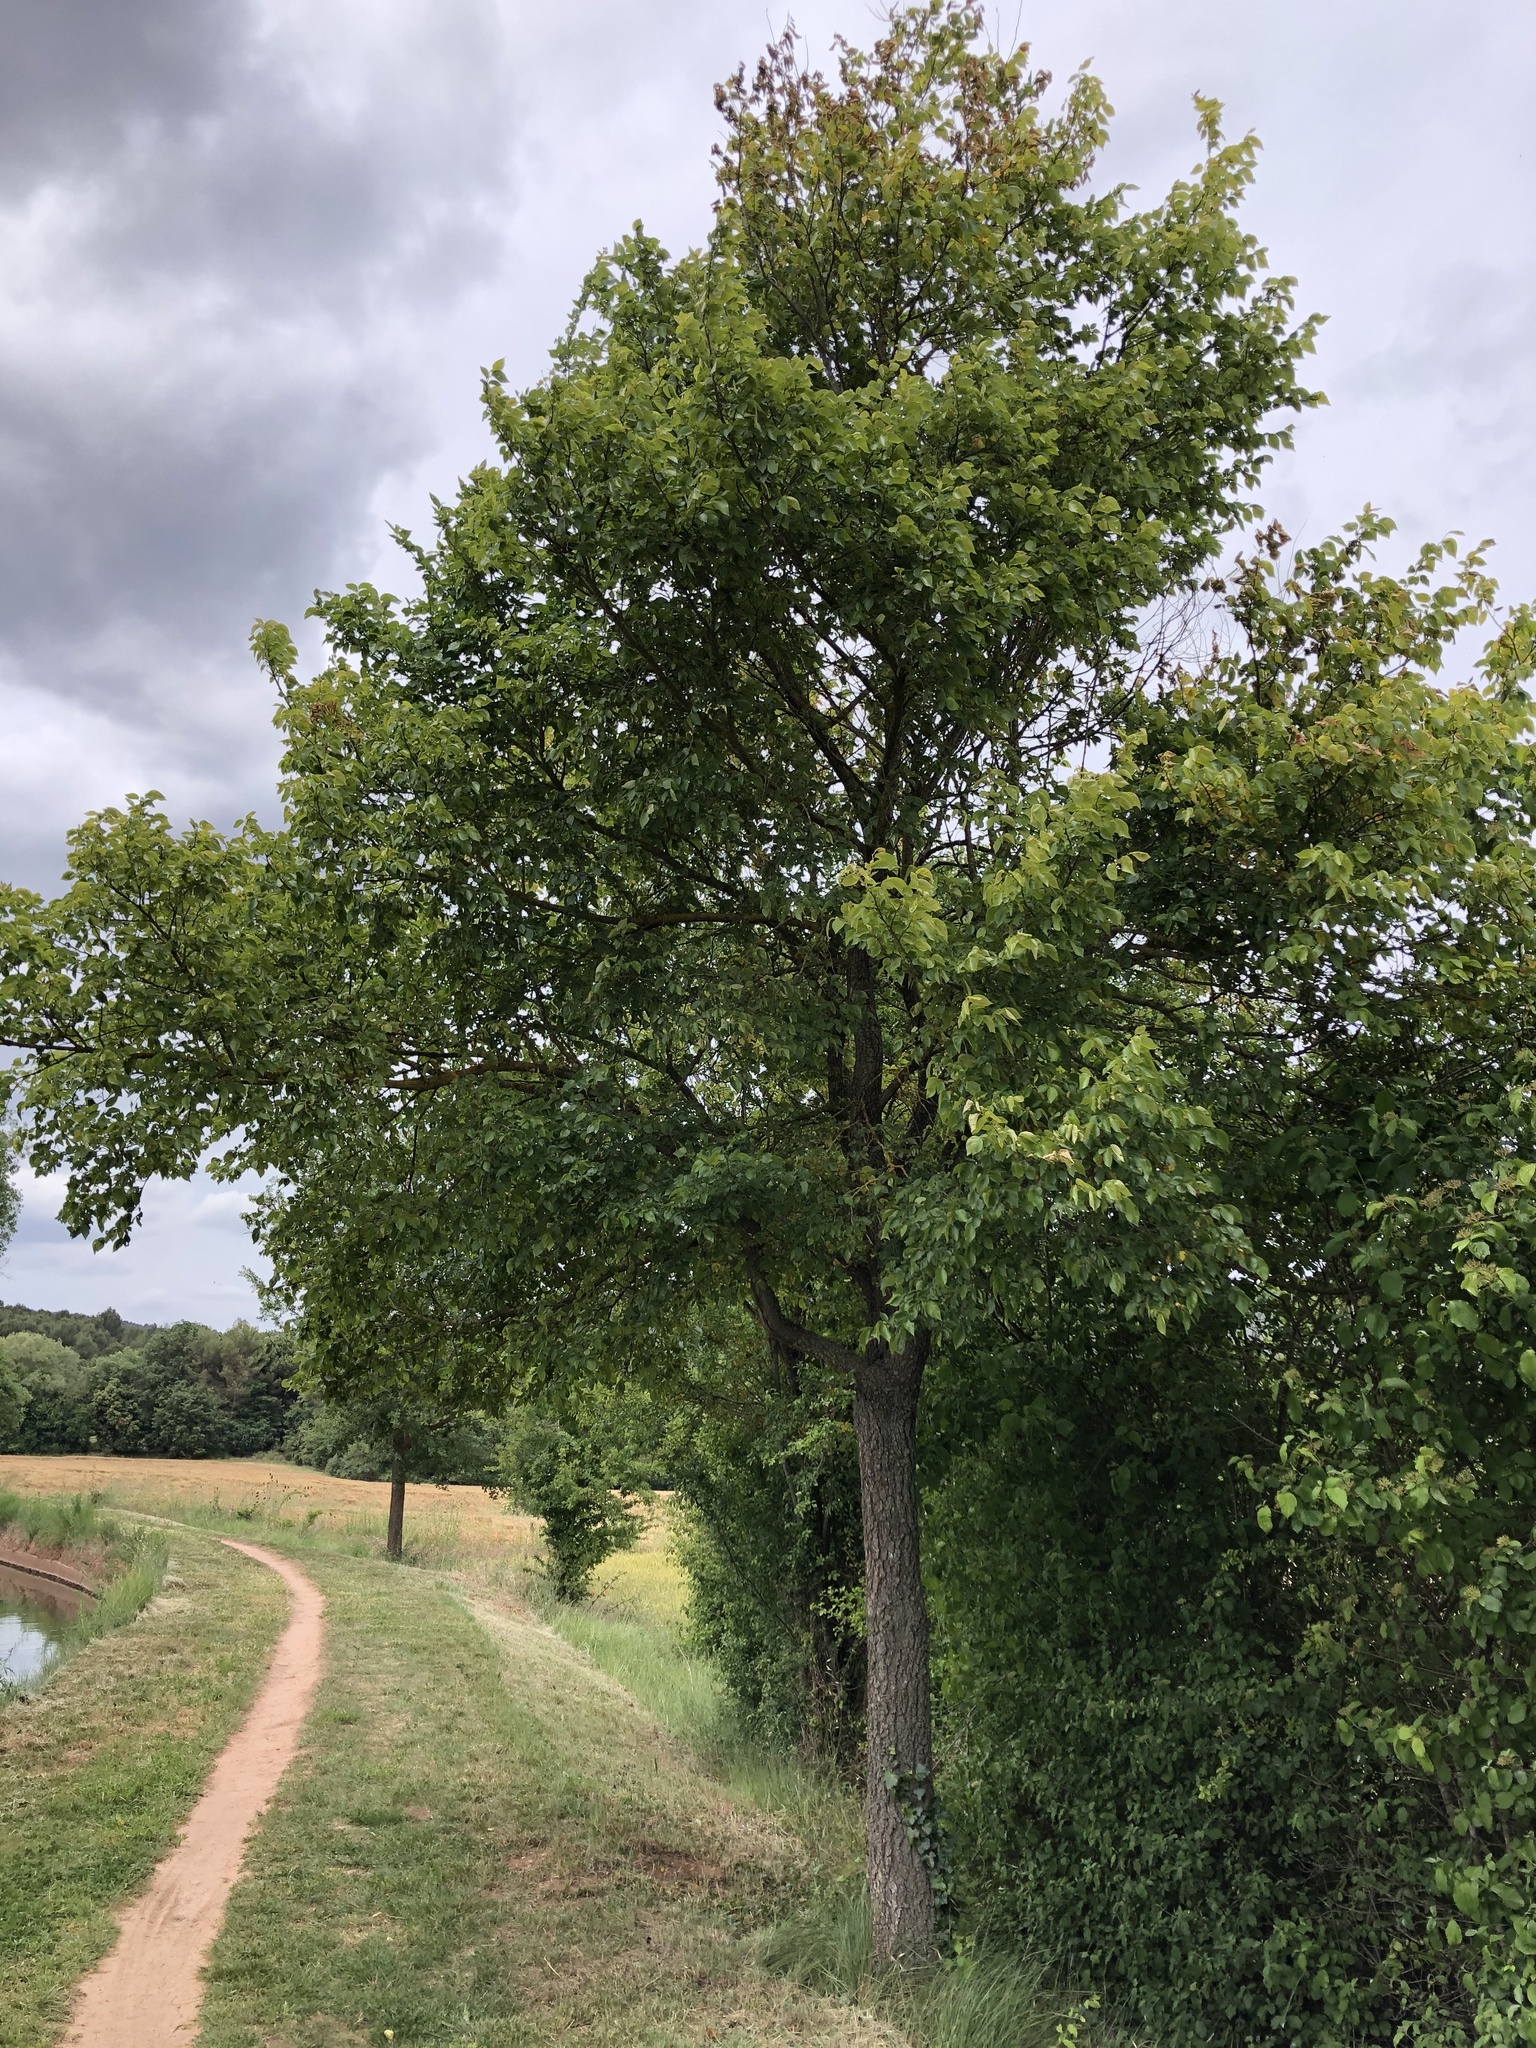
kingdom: Plantae
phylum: Tracheophyta
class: Magnoliopsida
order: Rosales
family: Ulmaceae
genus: Ulmus
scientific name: Ulmus minor
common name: Small-leaved elm
